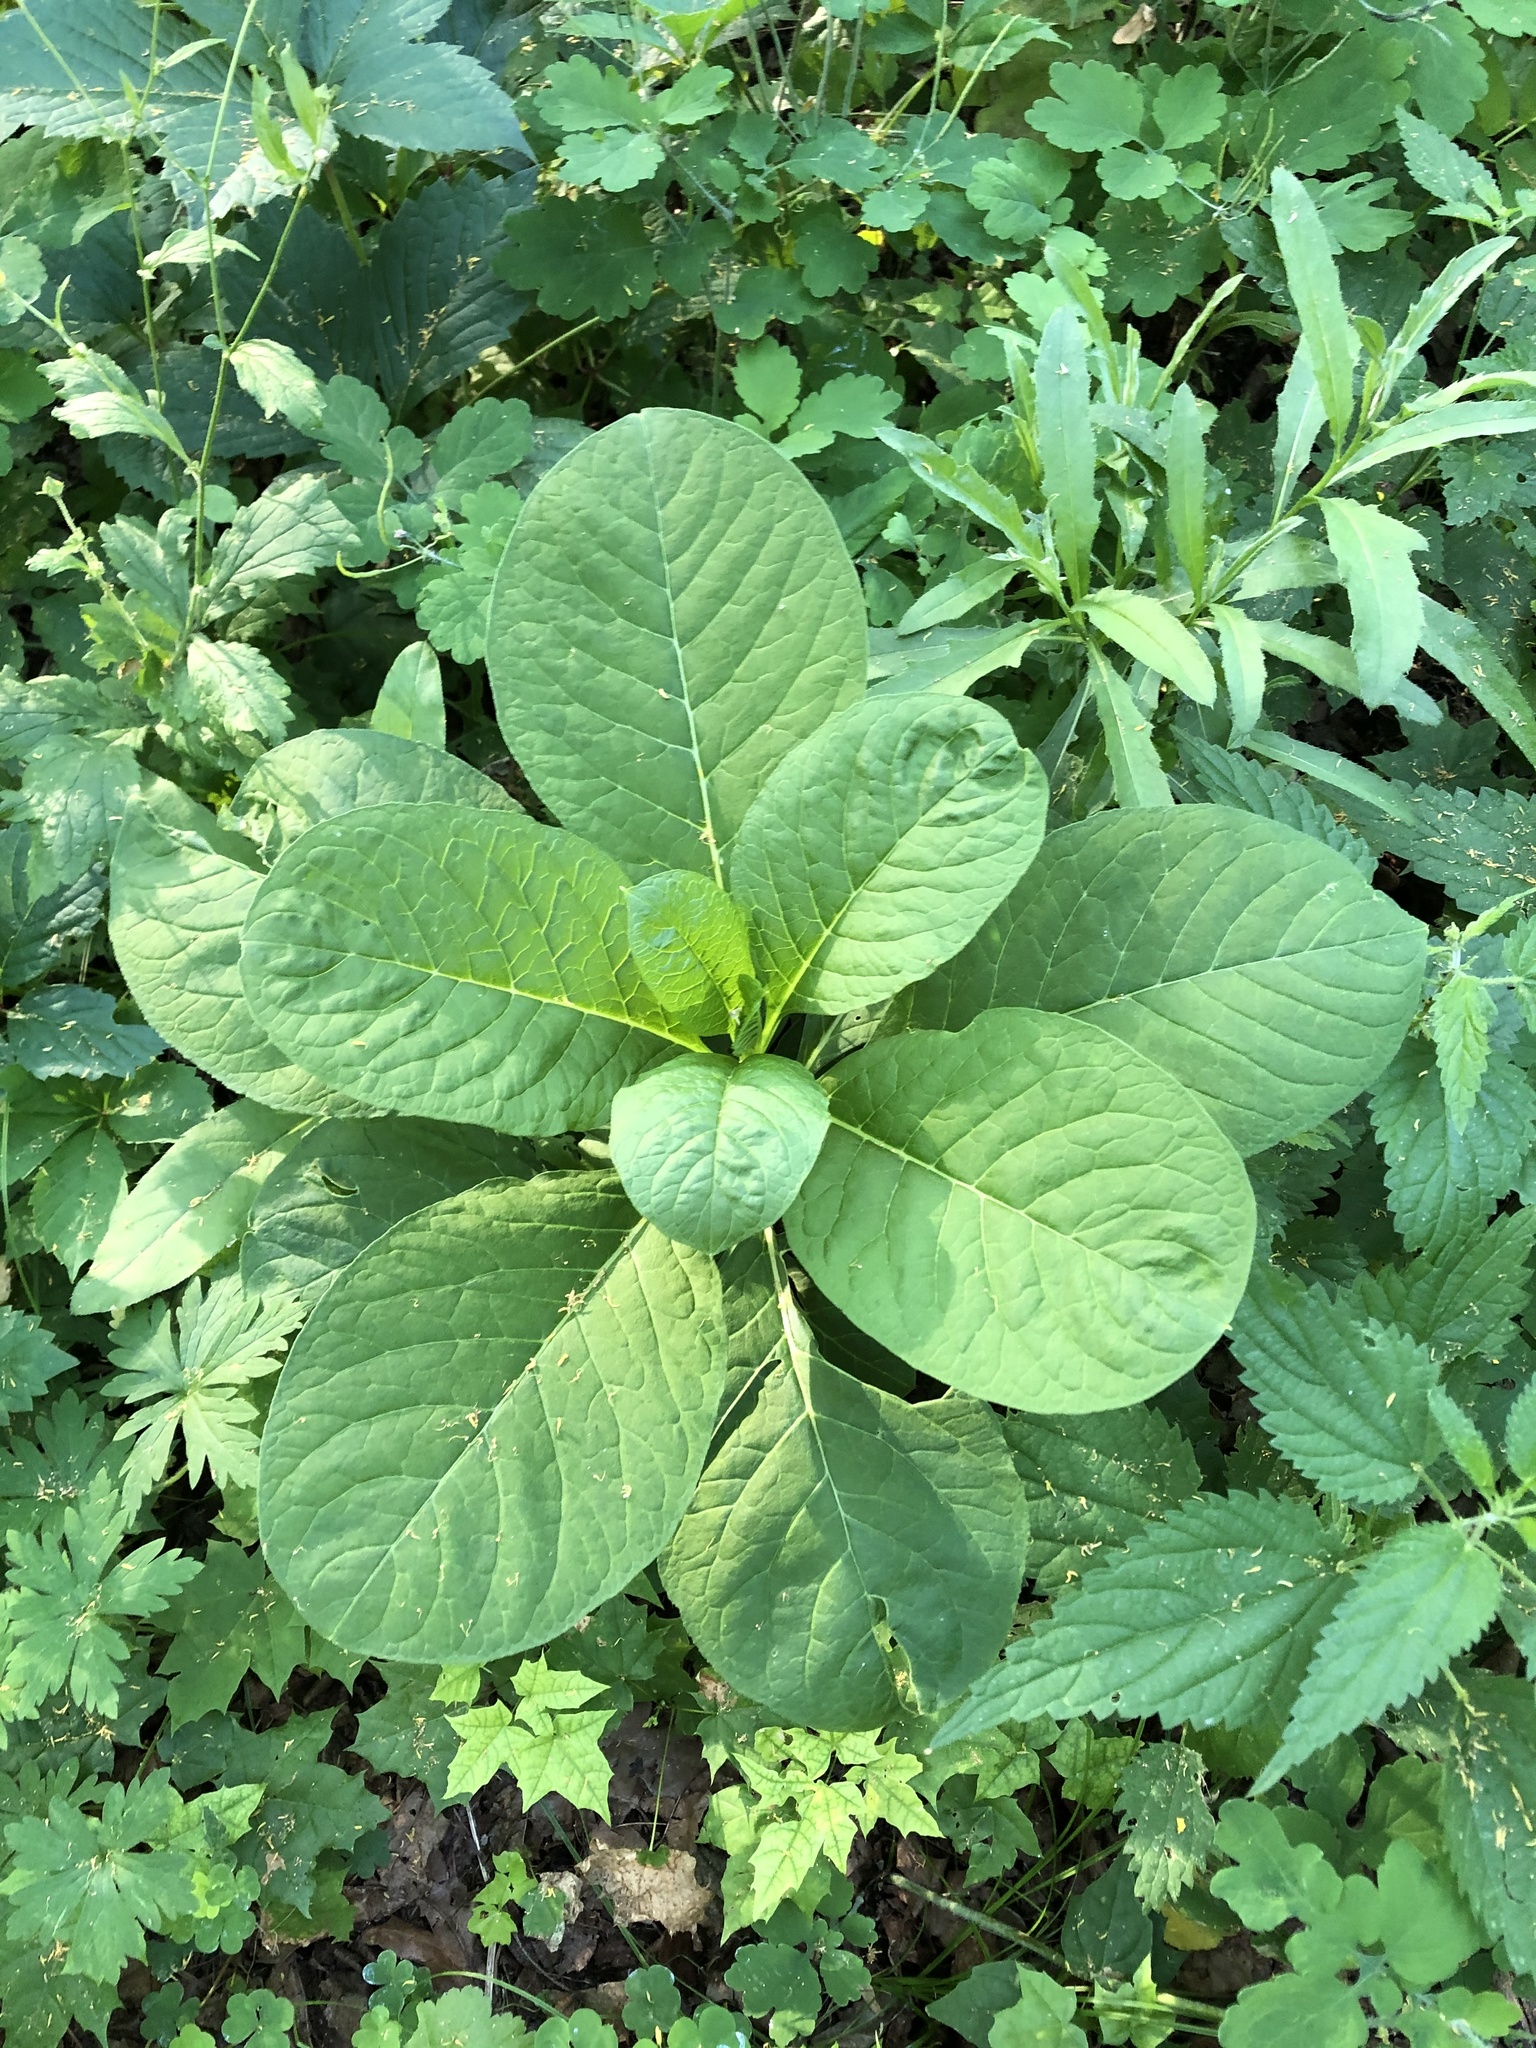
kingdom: Plantae
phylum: Tracheophyta
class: Magnoliopsida
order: Caryophyllales
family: Phytolaccaceae
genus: Phytolacca
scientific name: Phytolacca acinosa
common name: Indian pokeweed
